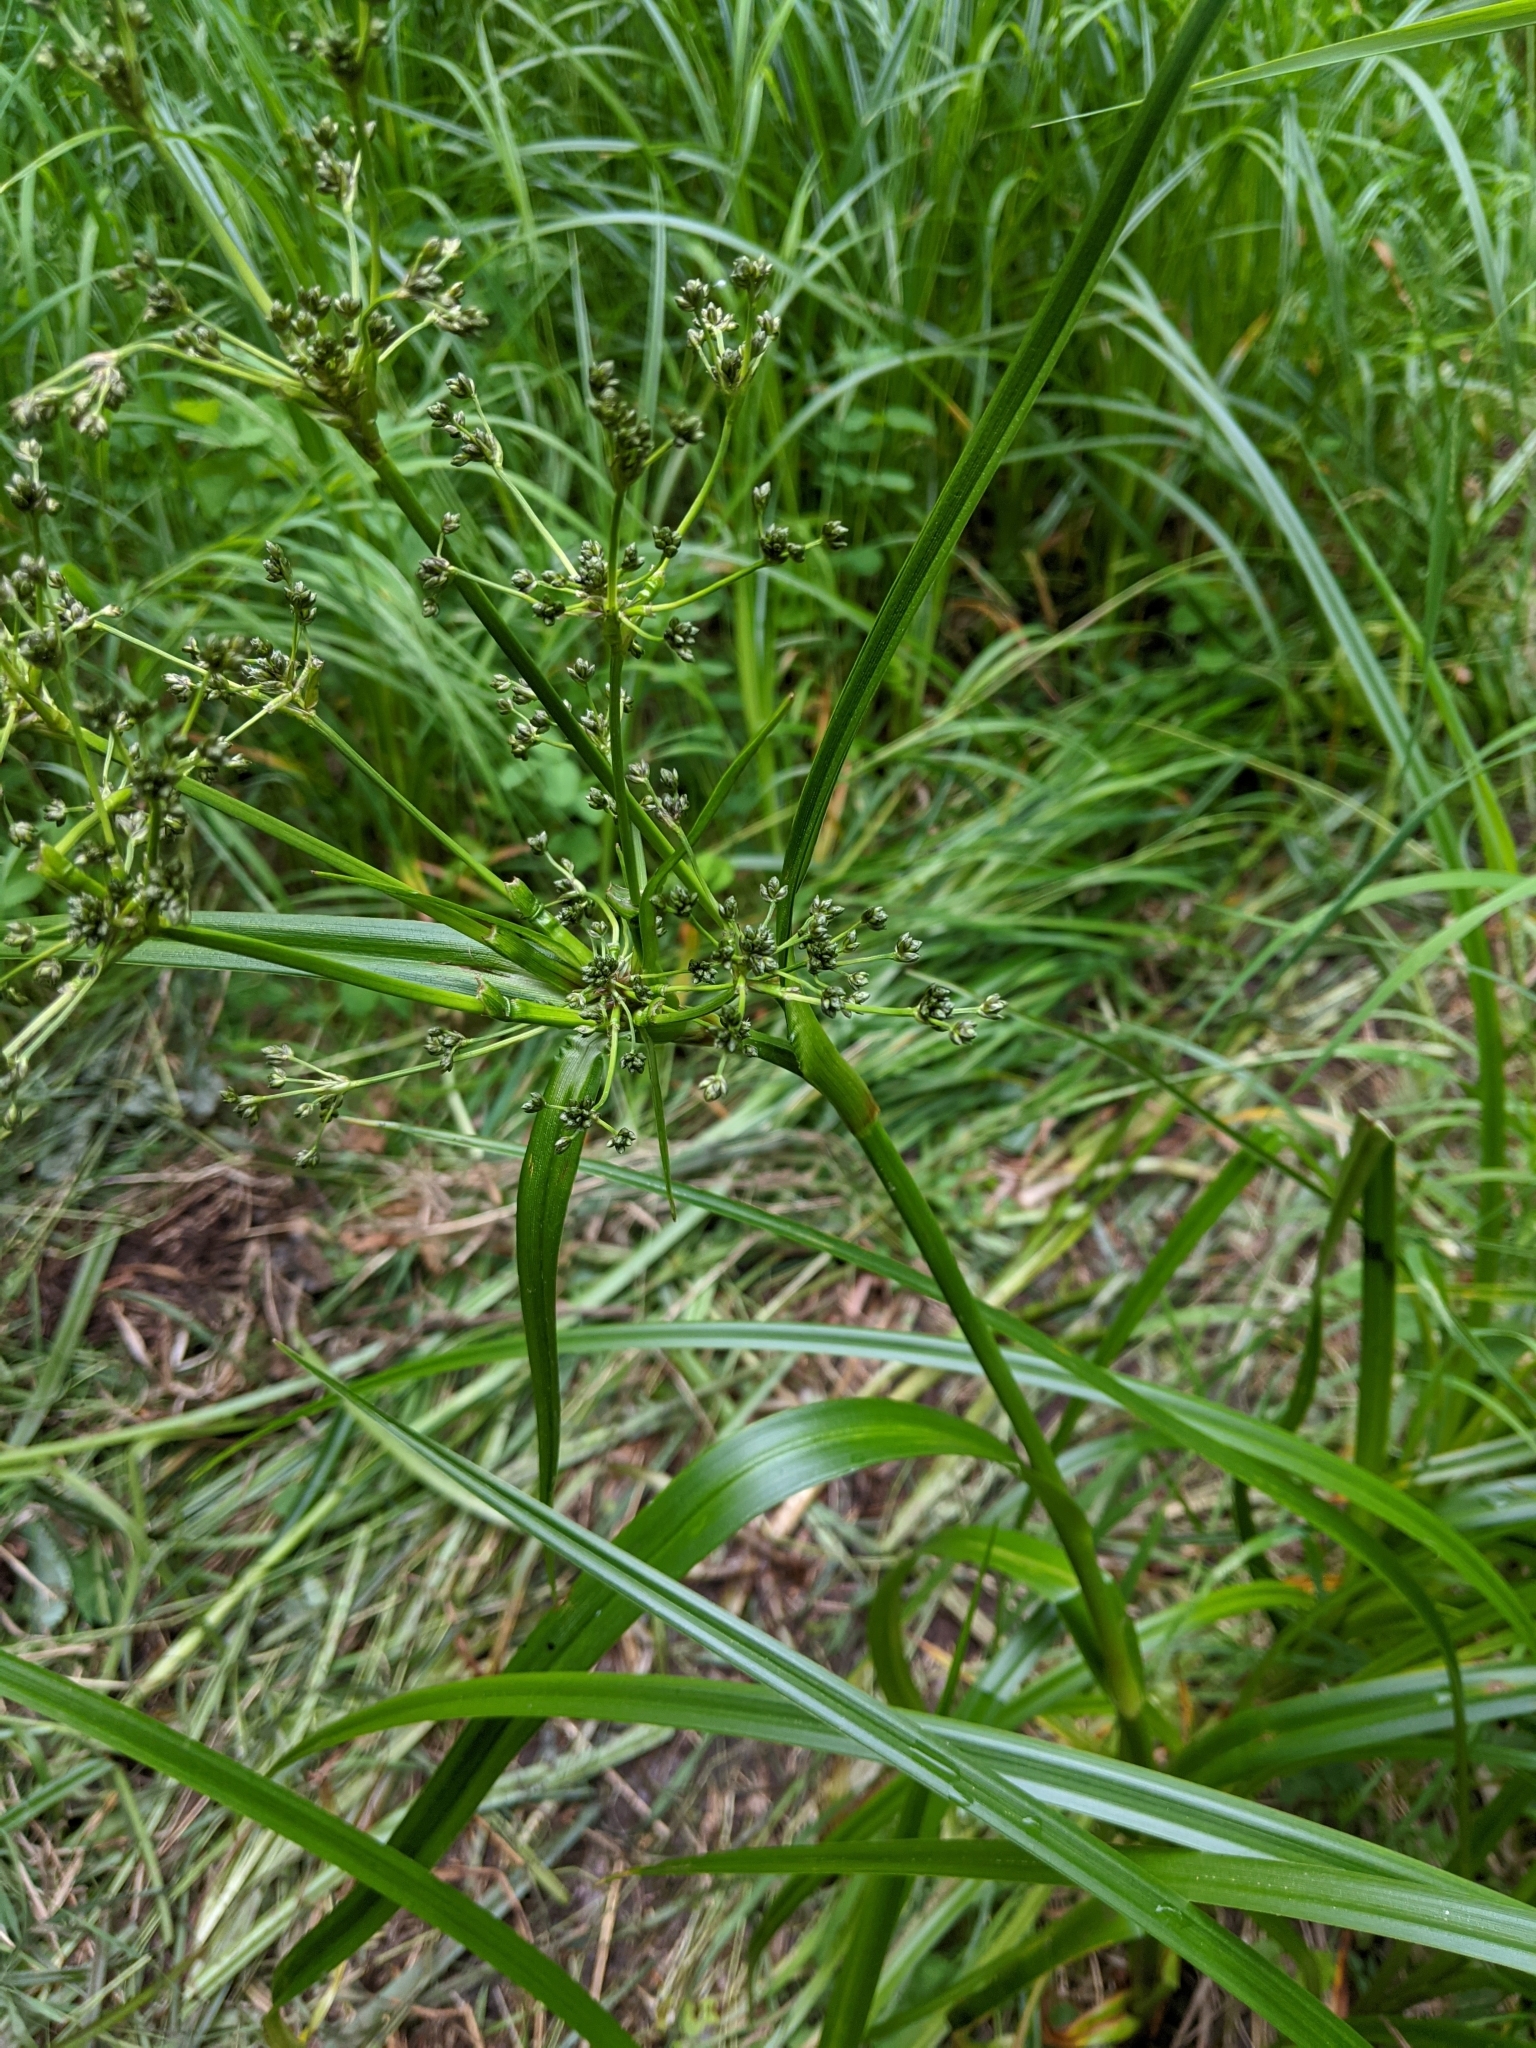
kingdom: Plantae
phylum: Tracheophyta
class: Liliopsida
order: Poales
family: Cyperaceae
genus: Scirpus
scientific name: Scirpus microcarpus
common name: Panicled bulrush
